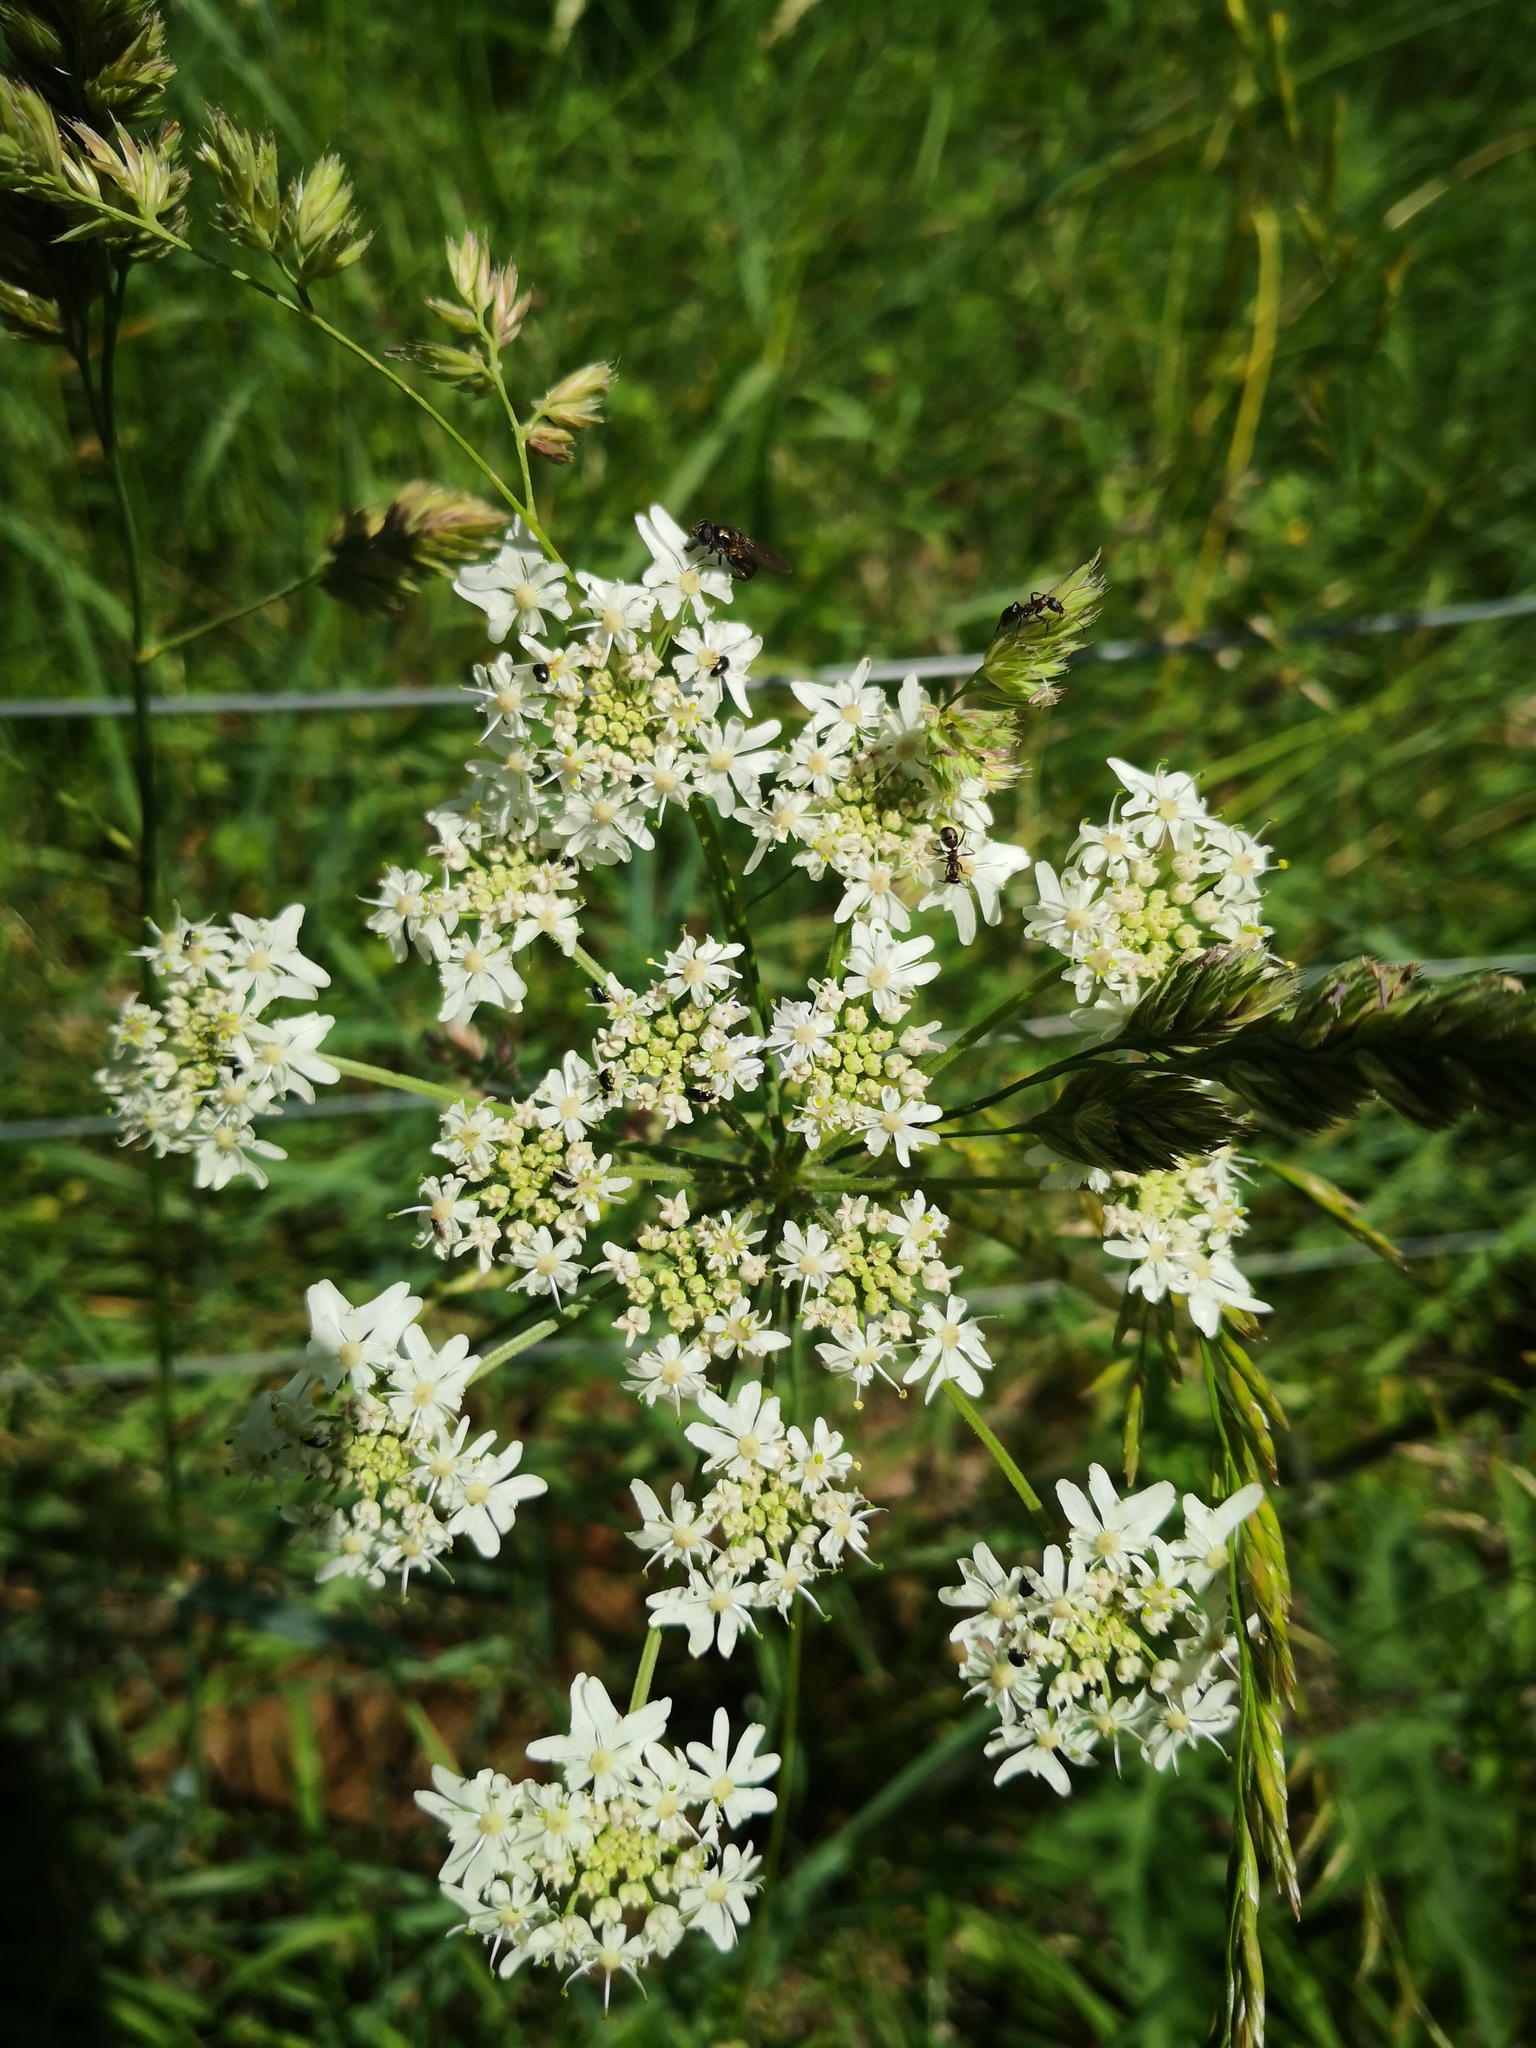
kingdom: Plantae
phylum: Tracheophyta
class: Magnoliopsida
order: Apiales
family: Apiaceae
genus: Heracleum
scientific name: Heracleum sphondylium
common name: Hogweed
